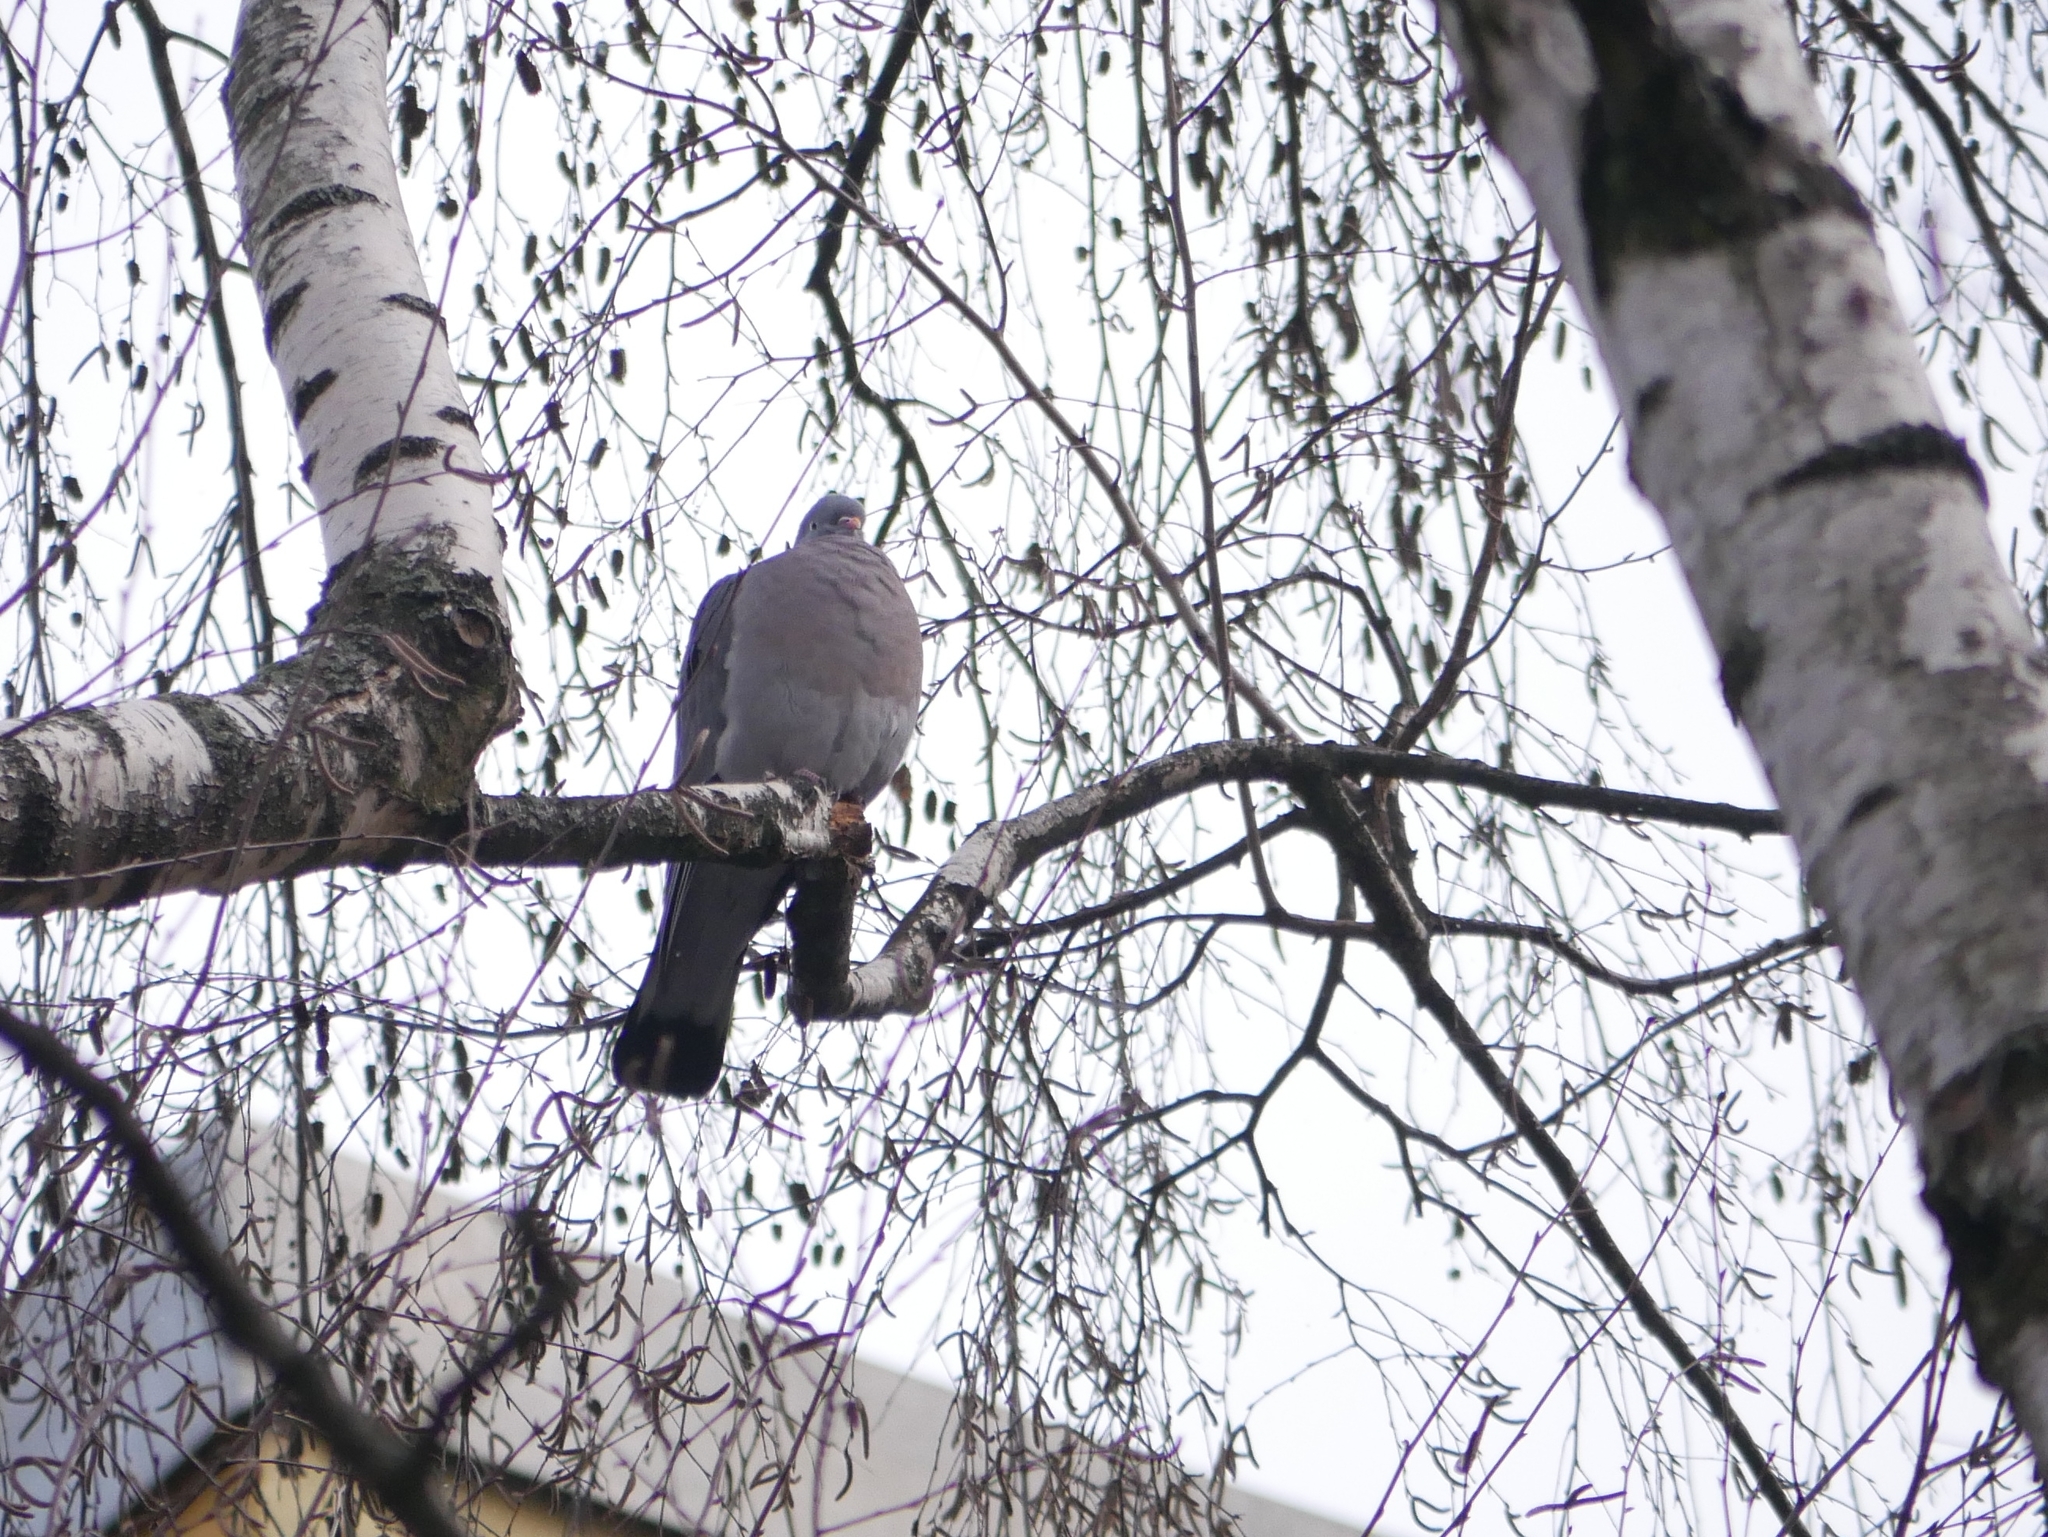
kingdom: Animalia
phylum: Chordata
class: Aves
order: Columbiformes
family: Columbidae
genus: Columba
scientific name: Columba palumbus
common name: Common wood pigeon
